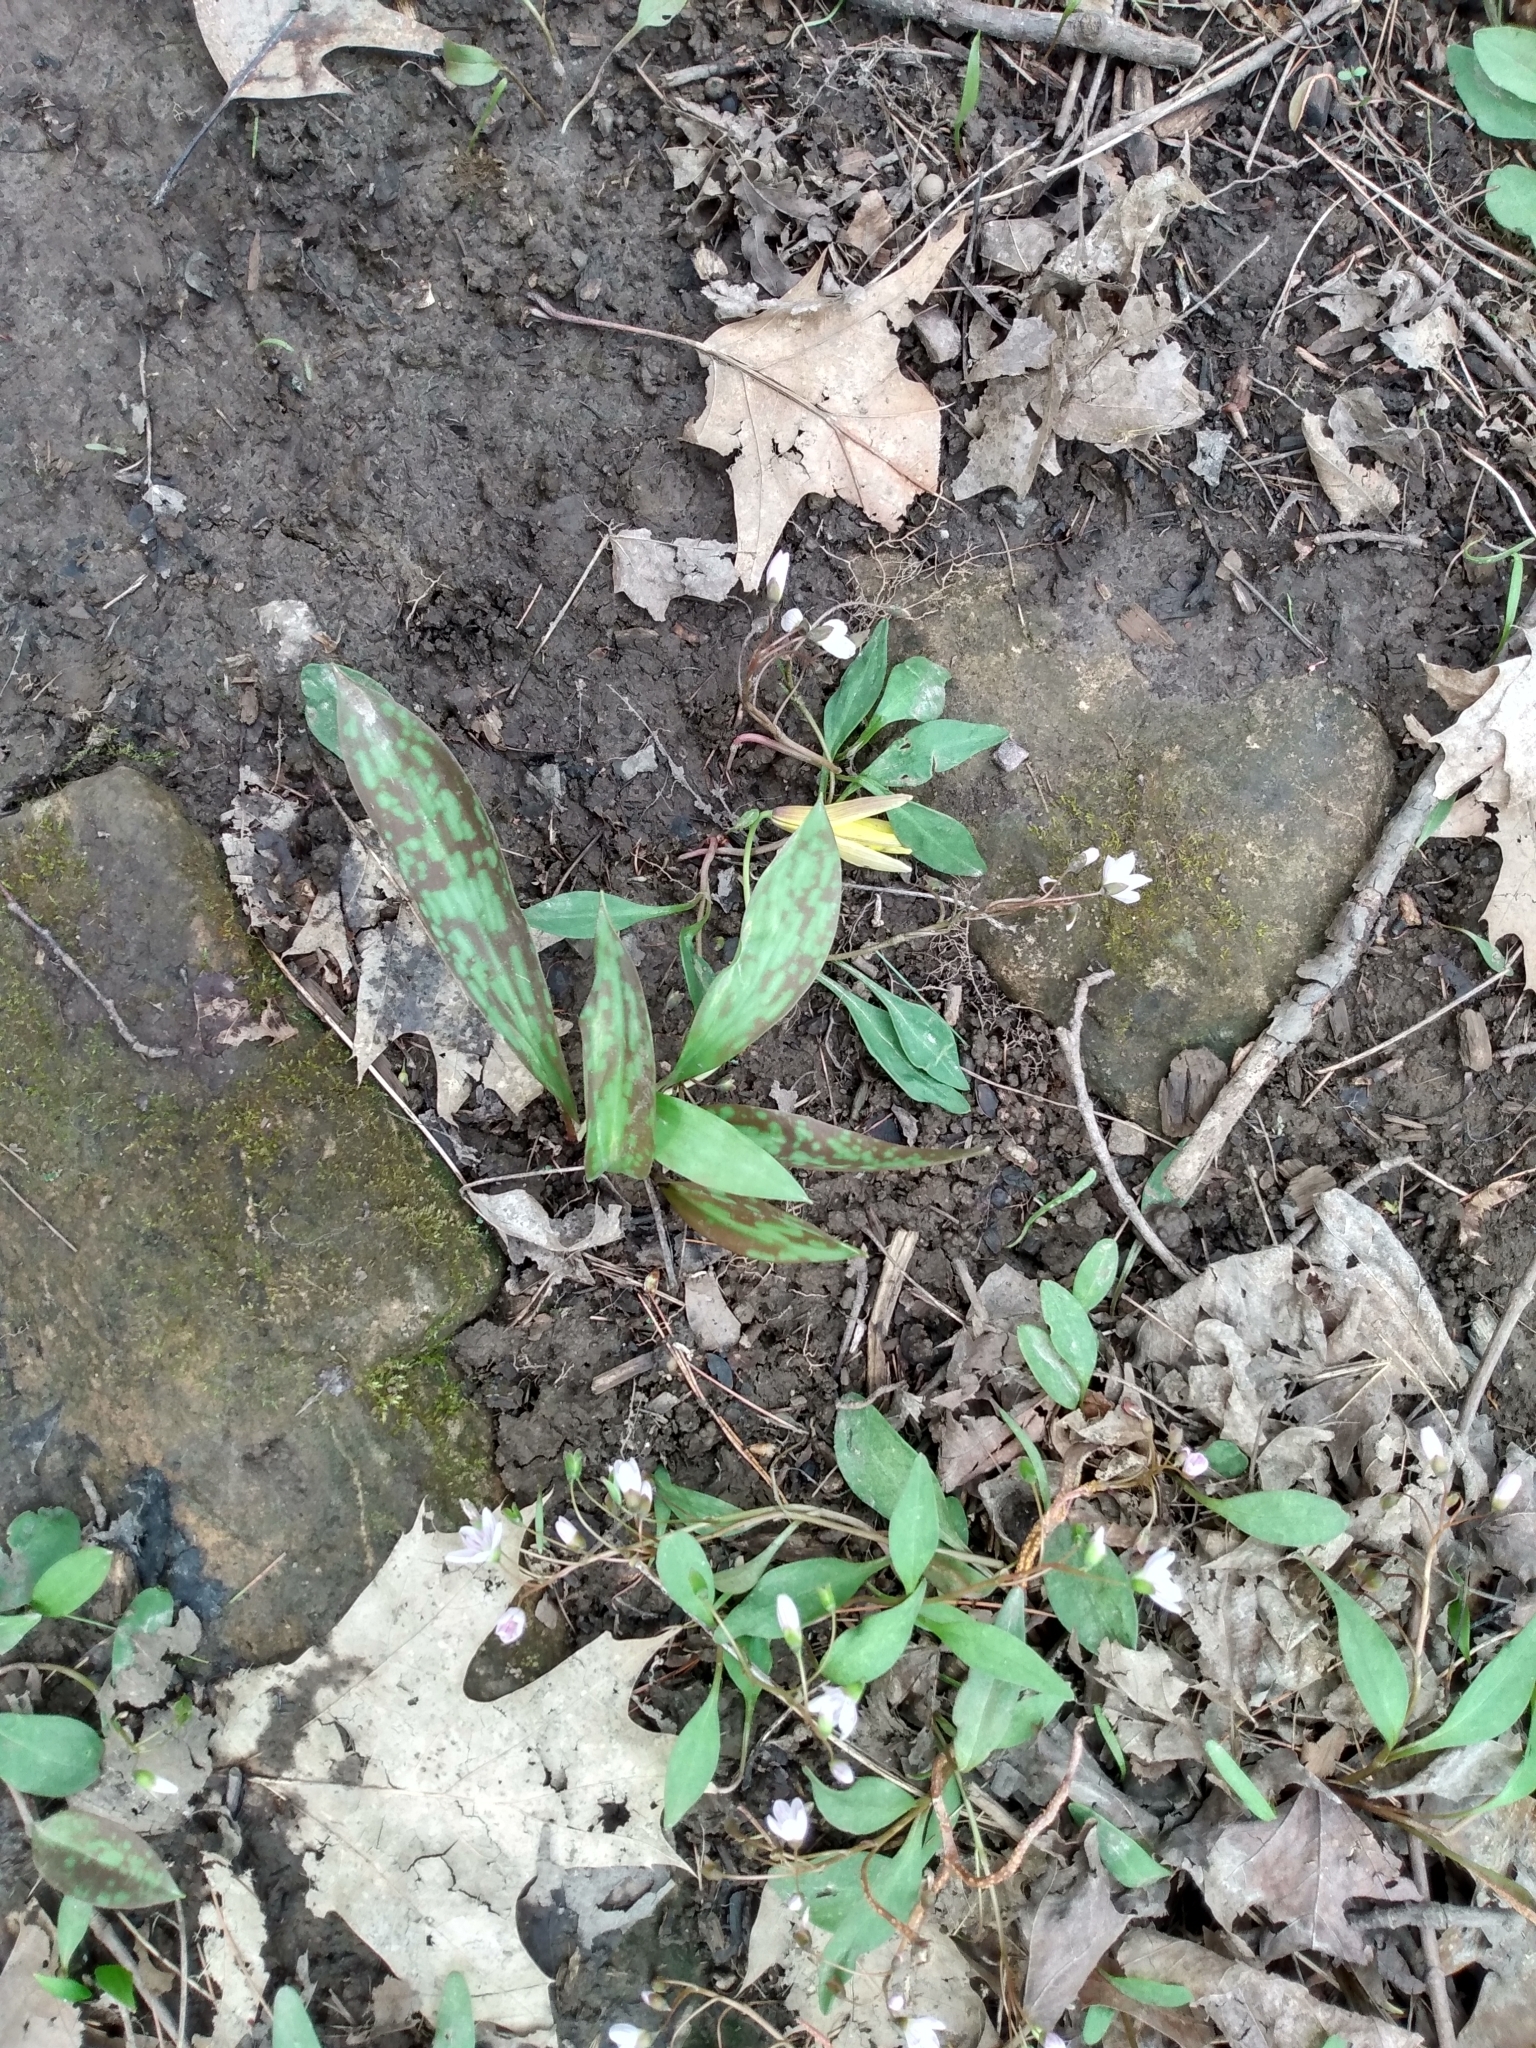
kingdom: Plantae
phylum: Tracheophyta
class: Liliopsida
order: Liliales
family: Liliaceae
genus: Erythronium
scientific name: Erythronium americanum
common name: Yellow adder's-tongue
